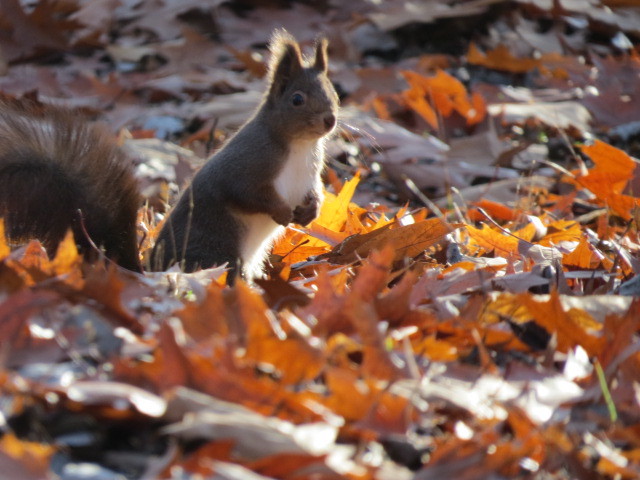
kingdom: Animalia
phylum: Chordata
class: Mammalia
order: Rodentia
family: Sciuridae
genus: Sciurus
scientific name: Sciurus vulgaris
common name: Eurasian red squirrel
